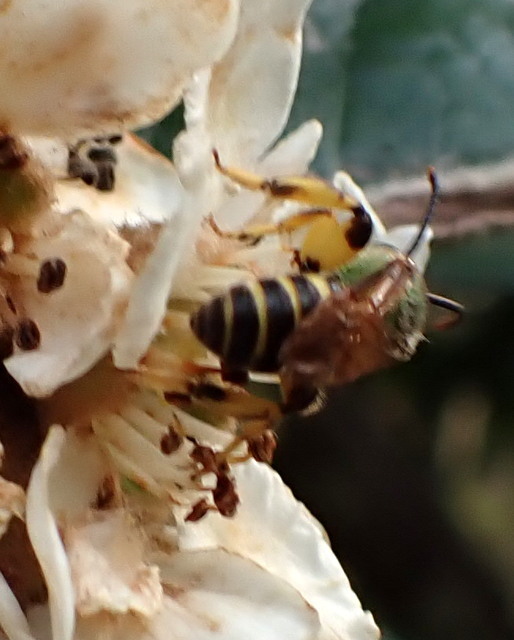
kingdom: Animalia
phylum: Arthropoda
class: Insecta
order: Hymenoptera
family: Halictidae
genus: Agapostemon
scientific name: Agapostemon splendens
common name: Brown-winged striped sweat bee
